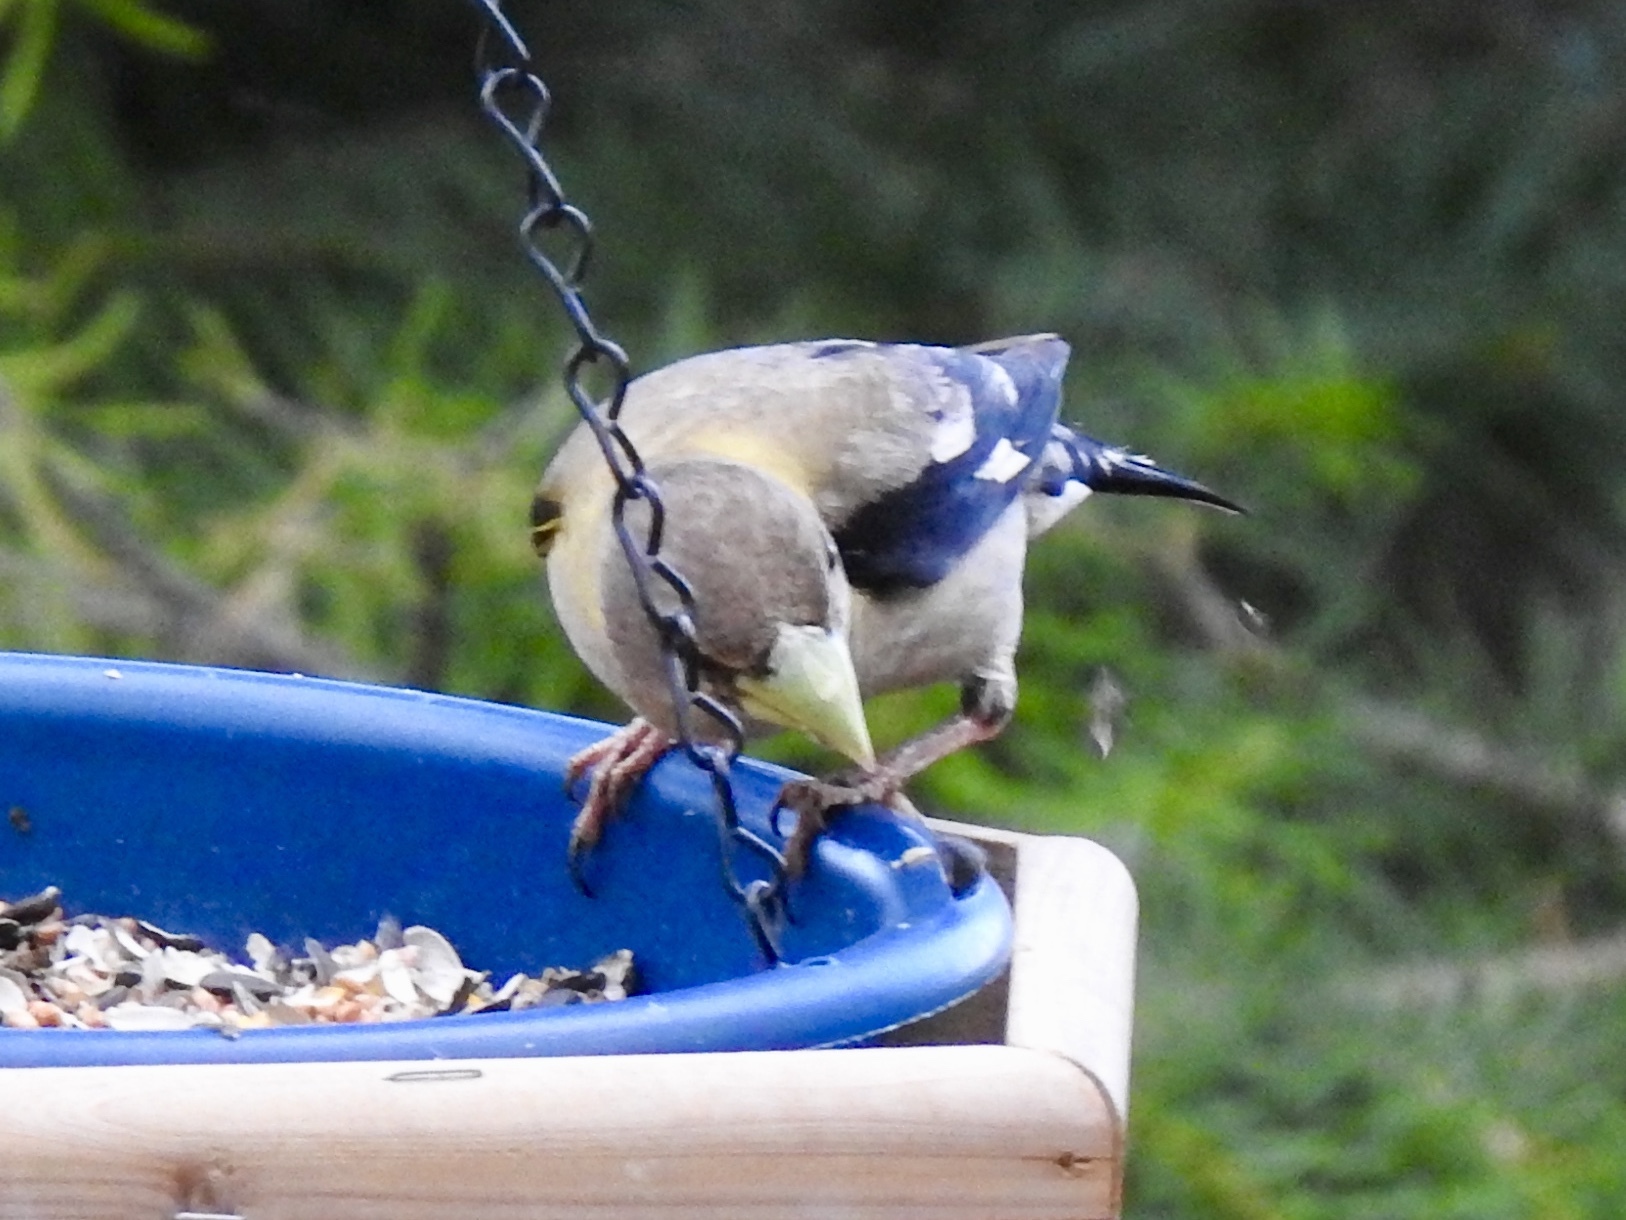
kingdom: Animalia
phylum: Chordata
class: Aves
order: Passeriformes
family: Fringillidae
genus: Hesperiphona
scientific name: Hesperiphona vespertina
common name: Evening grosbeak
